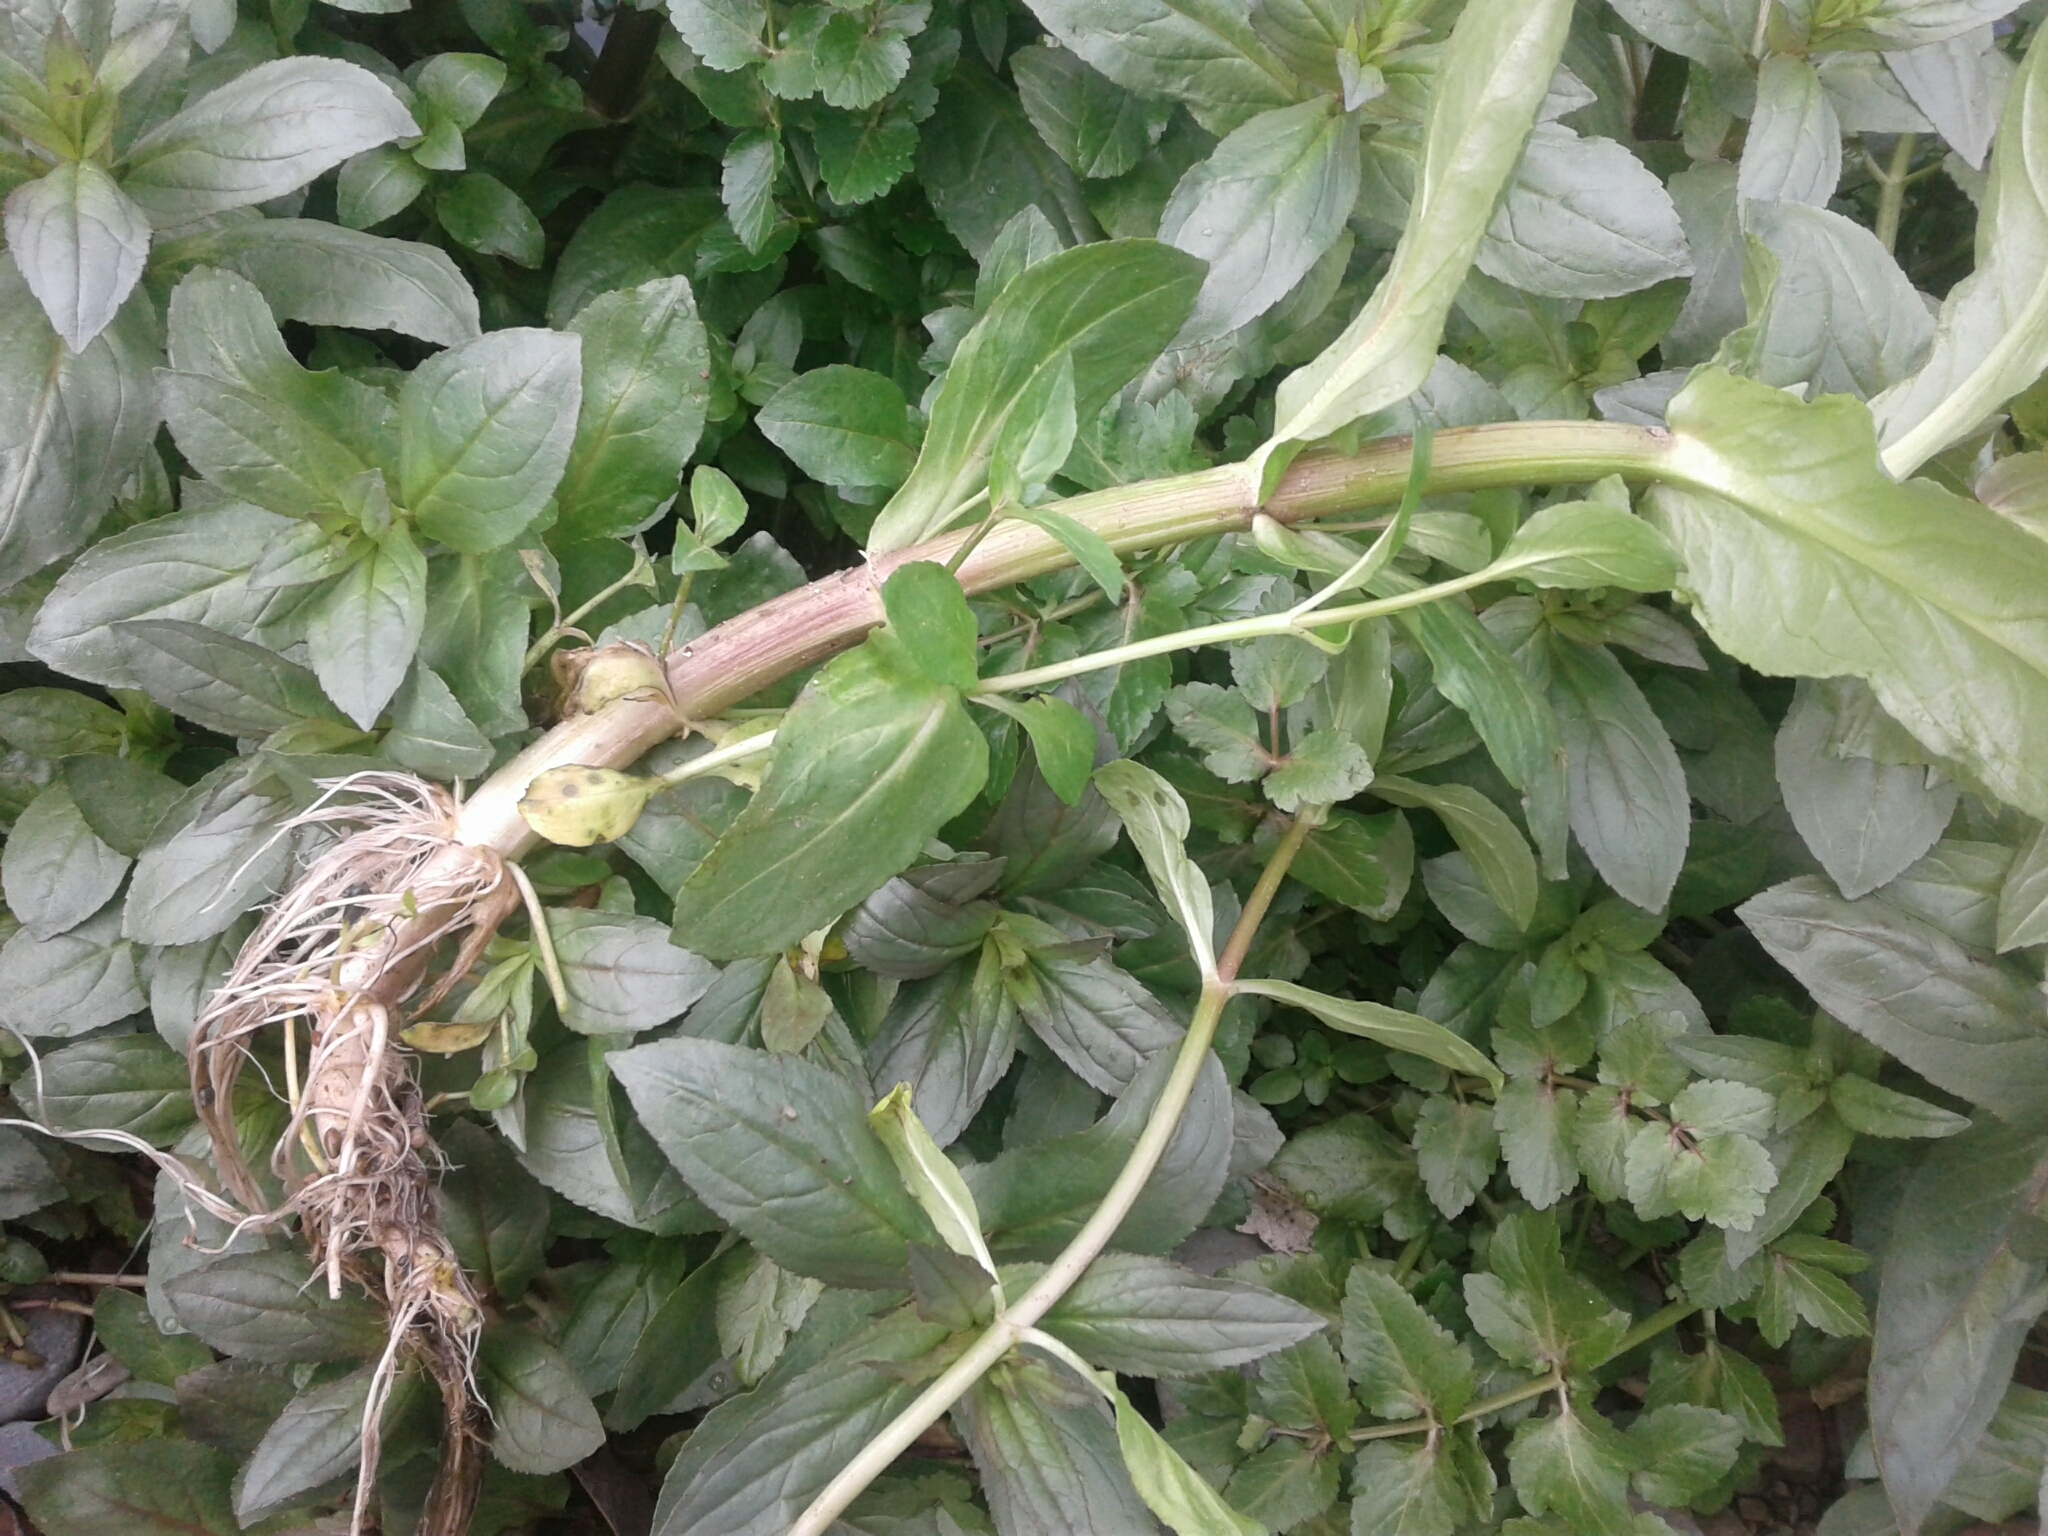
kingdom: Plantae
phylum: Tracheophyta
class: Magnoliopsida
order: Lamiales
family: Phrymaceae
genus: Erythranthe
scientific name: Erythranthe guttata
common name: Monkeyflower
